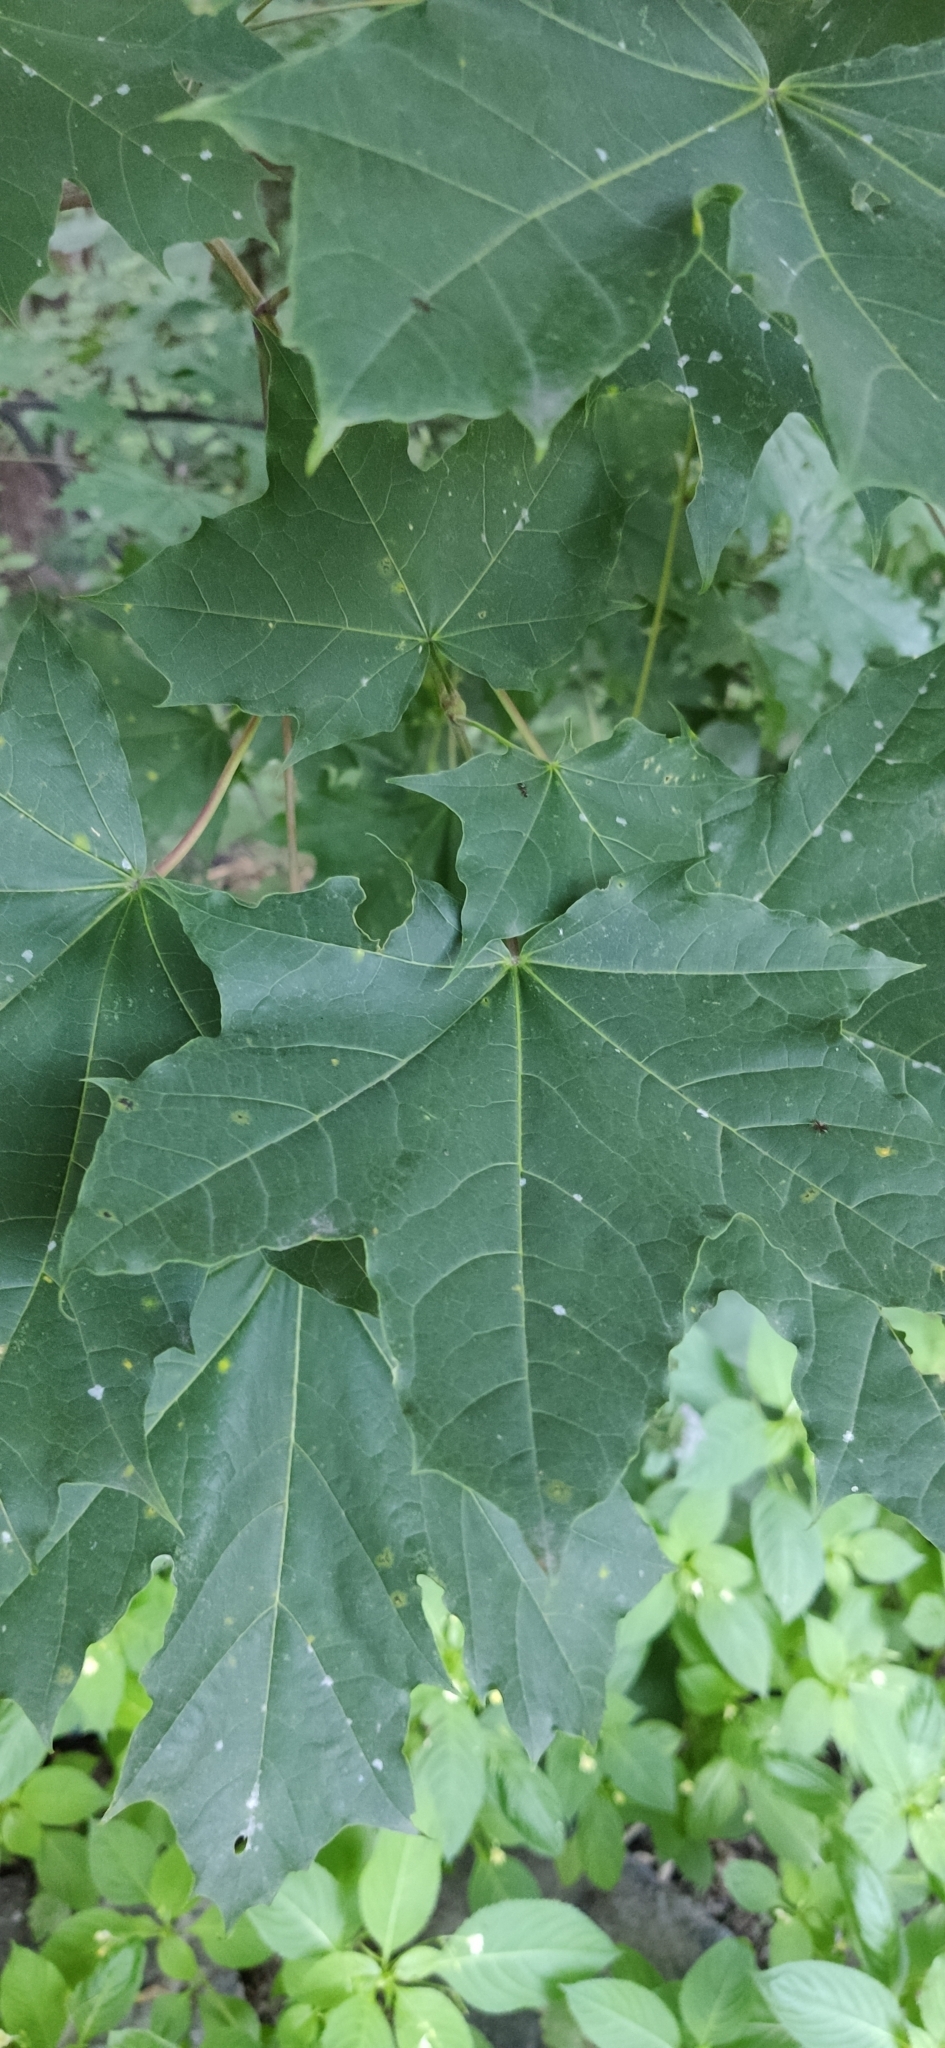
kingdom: Plantae
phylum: Tracheophyta
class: Magnoliopsida
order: Sapindales
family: Sapindaceae
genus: Acer
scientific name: Acer platanoides
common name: Norway maple
